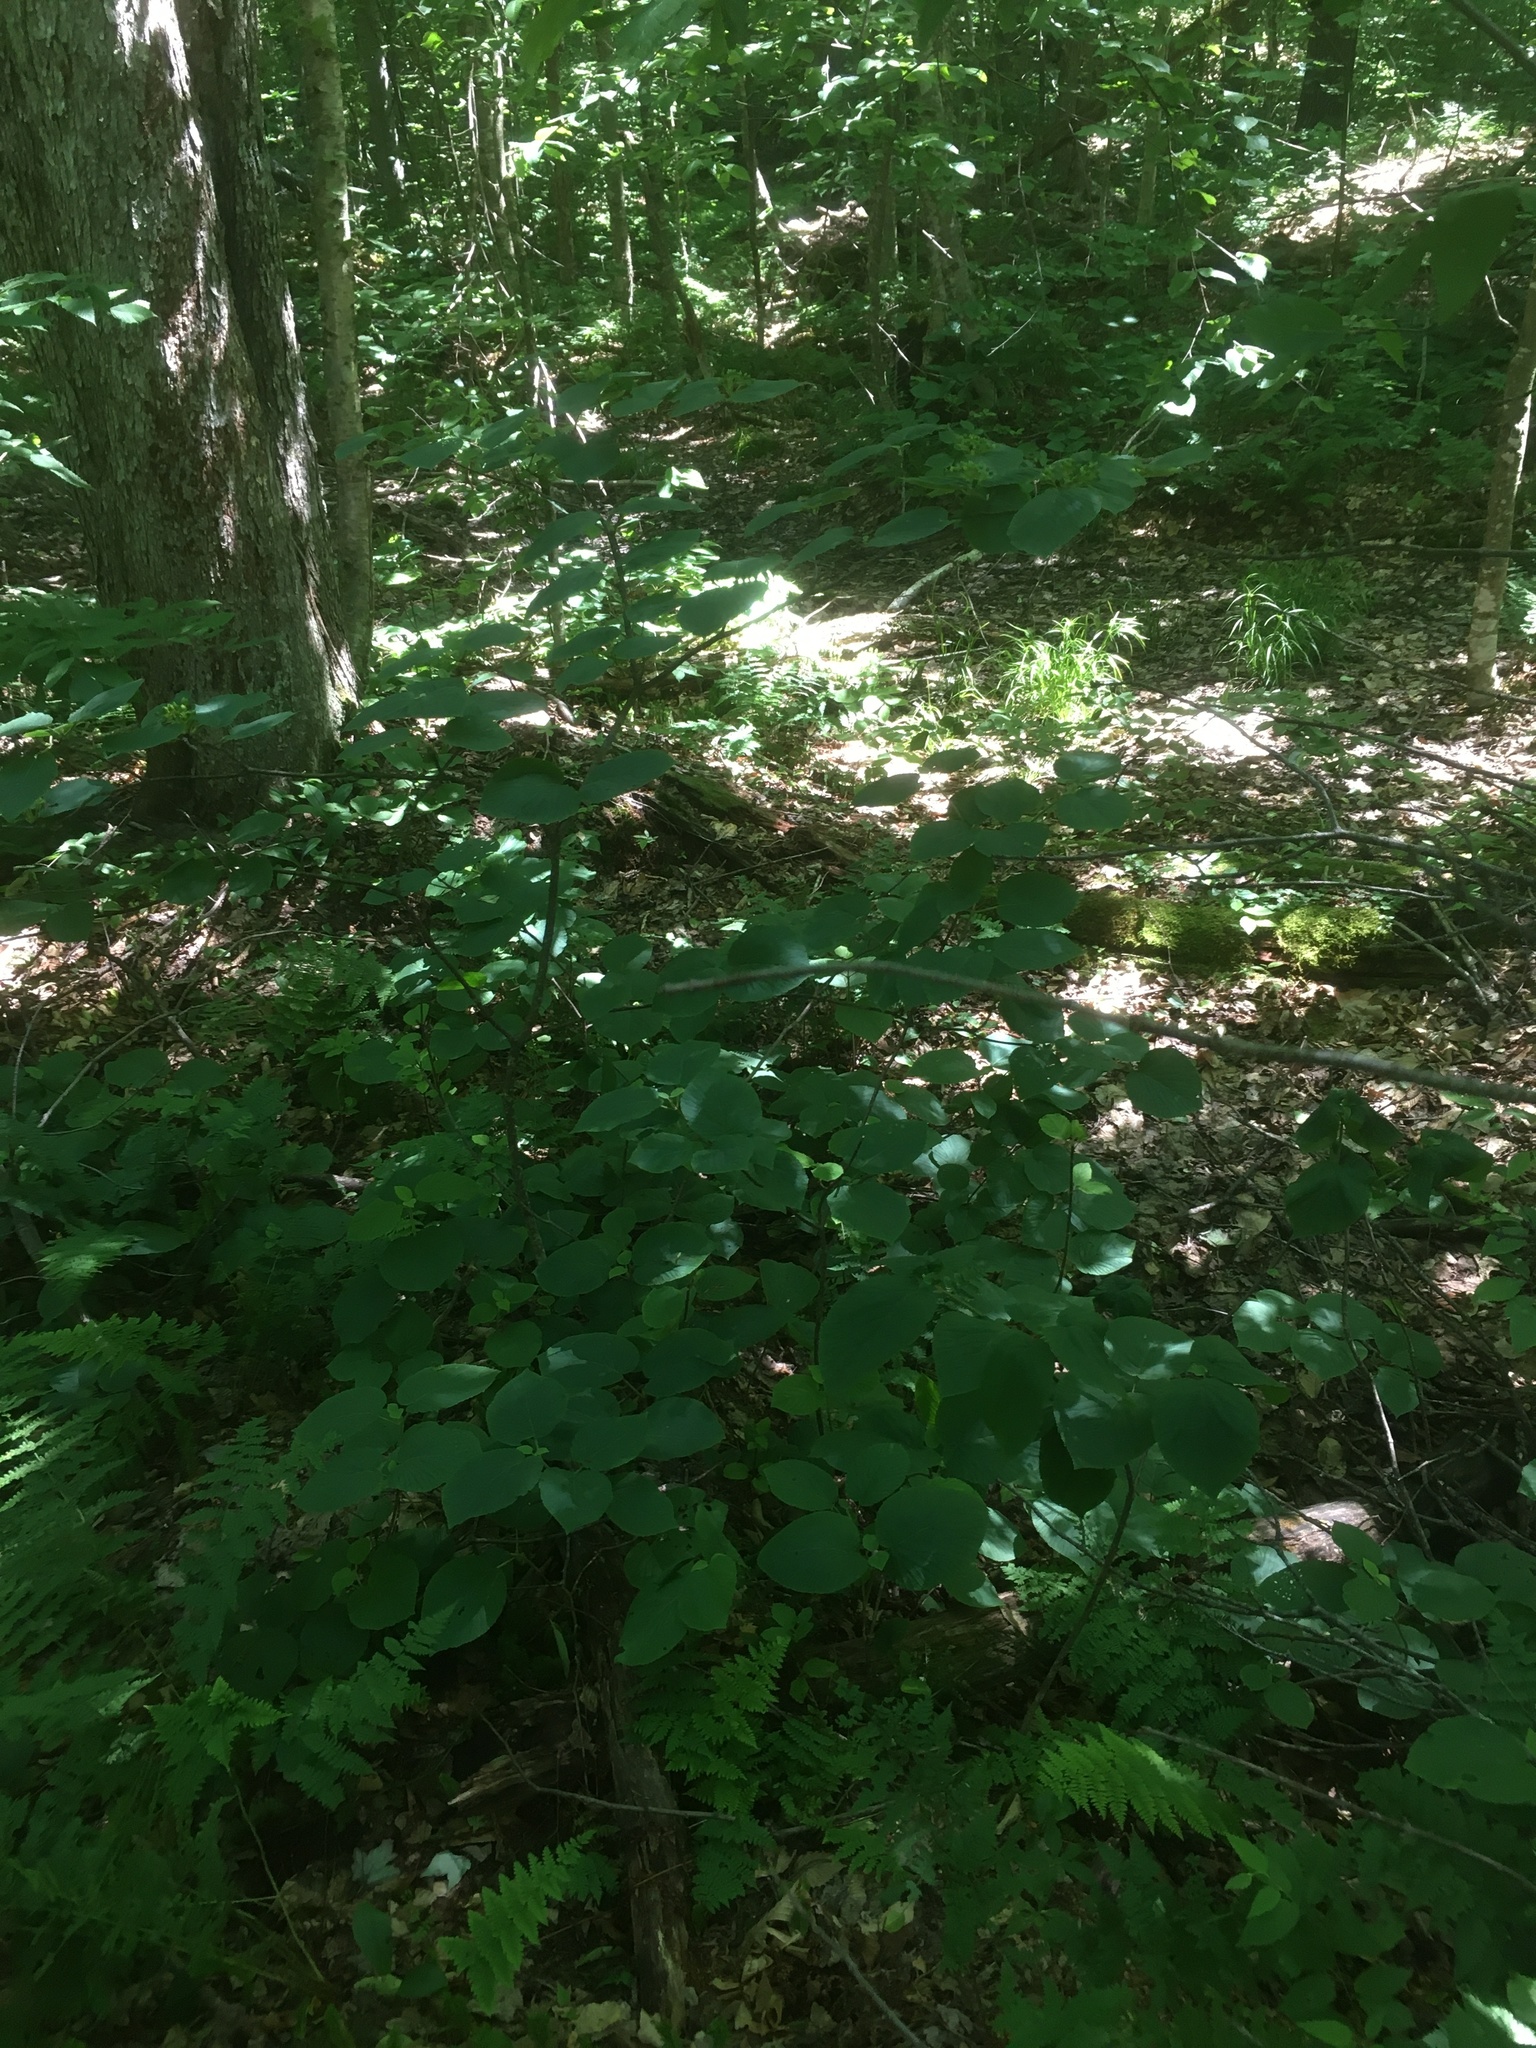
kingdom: Plantae
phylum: Tracheophyta
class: Magnoliopsida
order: Dipsacales
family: Viburnaceae
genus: Viburnum
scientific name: Viburnum lantanoides
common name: Hobblebush
